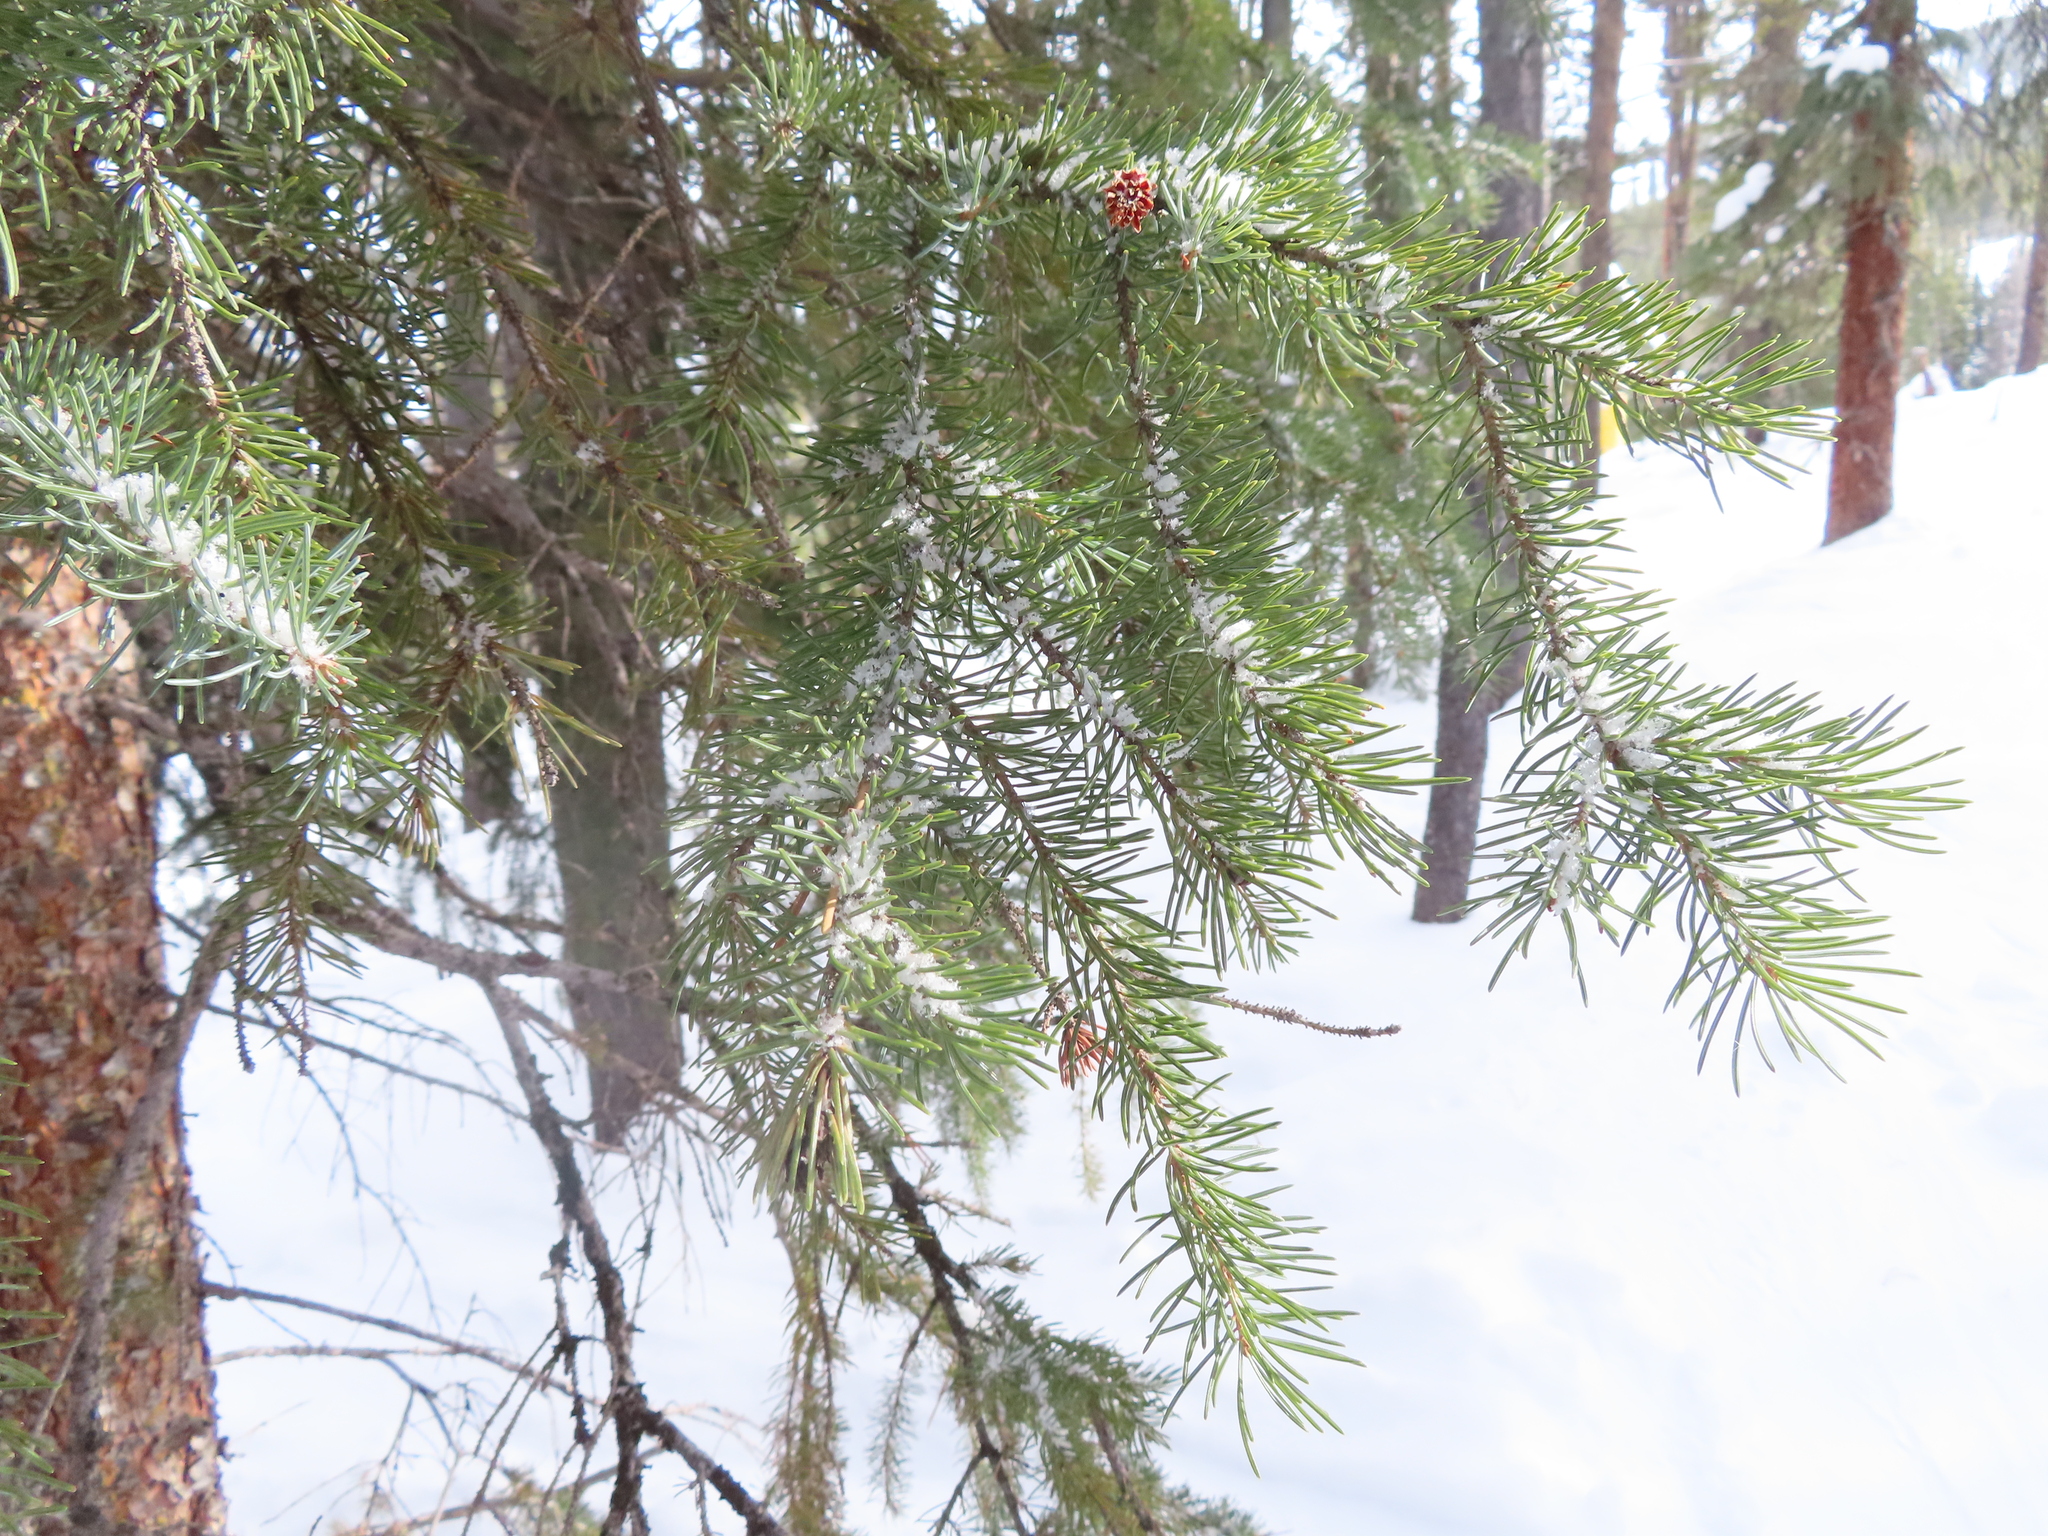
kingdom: Plantae
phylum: Tracheophyta
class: Pinopsida
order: Pinales
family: Pinaceae
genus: Pseudotsuga
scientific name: Pseudotsuga menziesii
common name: Douglas fir
